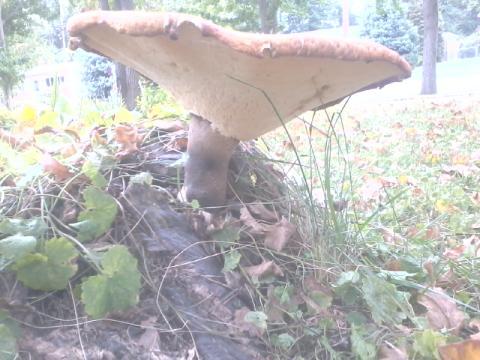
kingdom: Fungi
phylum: Basidiomycota
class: Agaricomycetes
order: Polyporales
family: Polyporaceae
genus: Cerioporus
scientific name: Cerioporus squamosus
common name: Dryad's saddle
